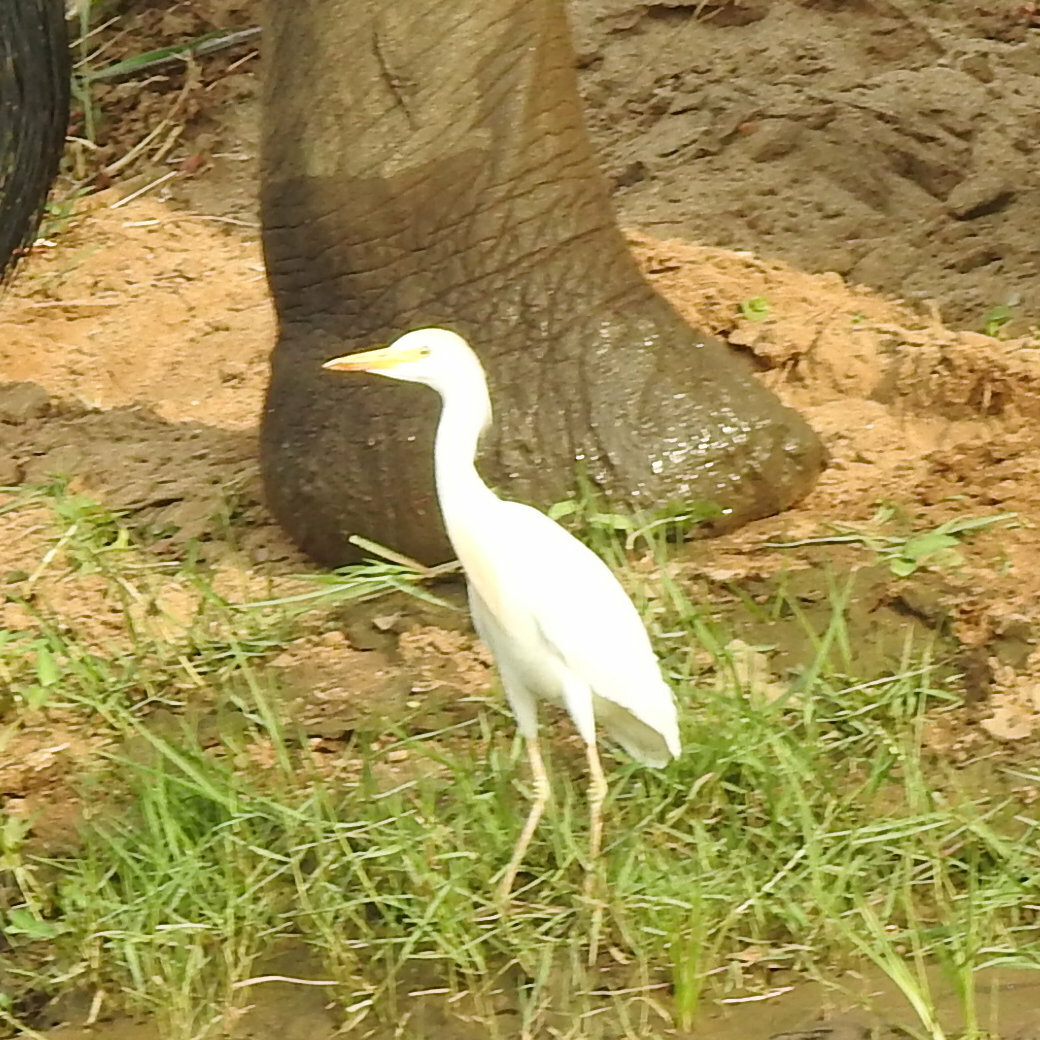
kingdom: Animalia
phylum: Chordata
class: Aves
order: Pelecaniformes
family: Ardeidae
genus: Bubulcus
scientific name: Bubulcus ibis
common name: Cattle egret
